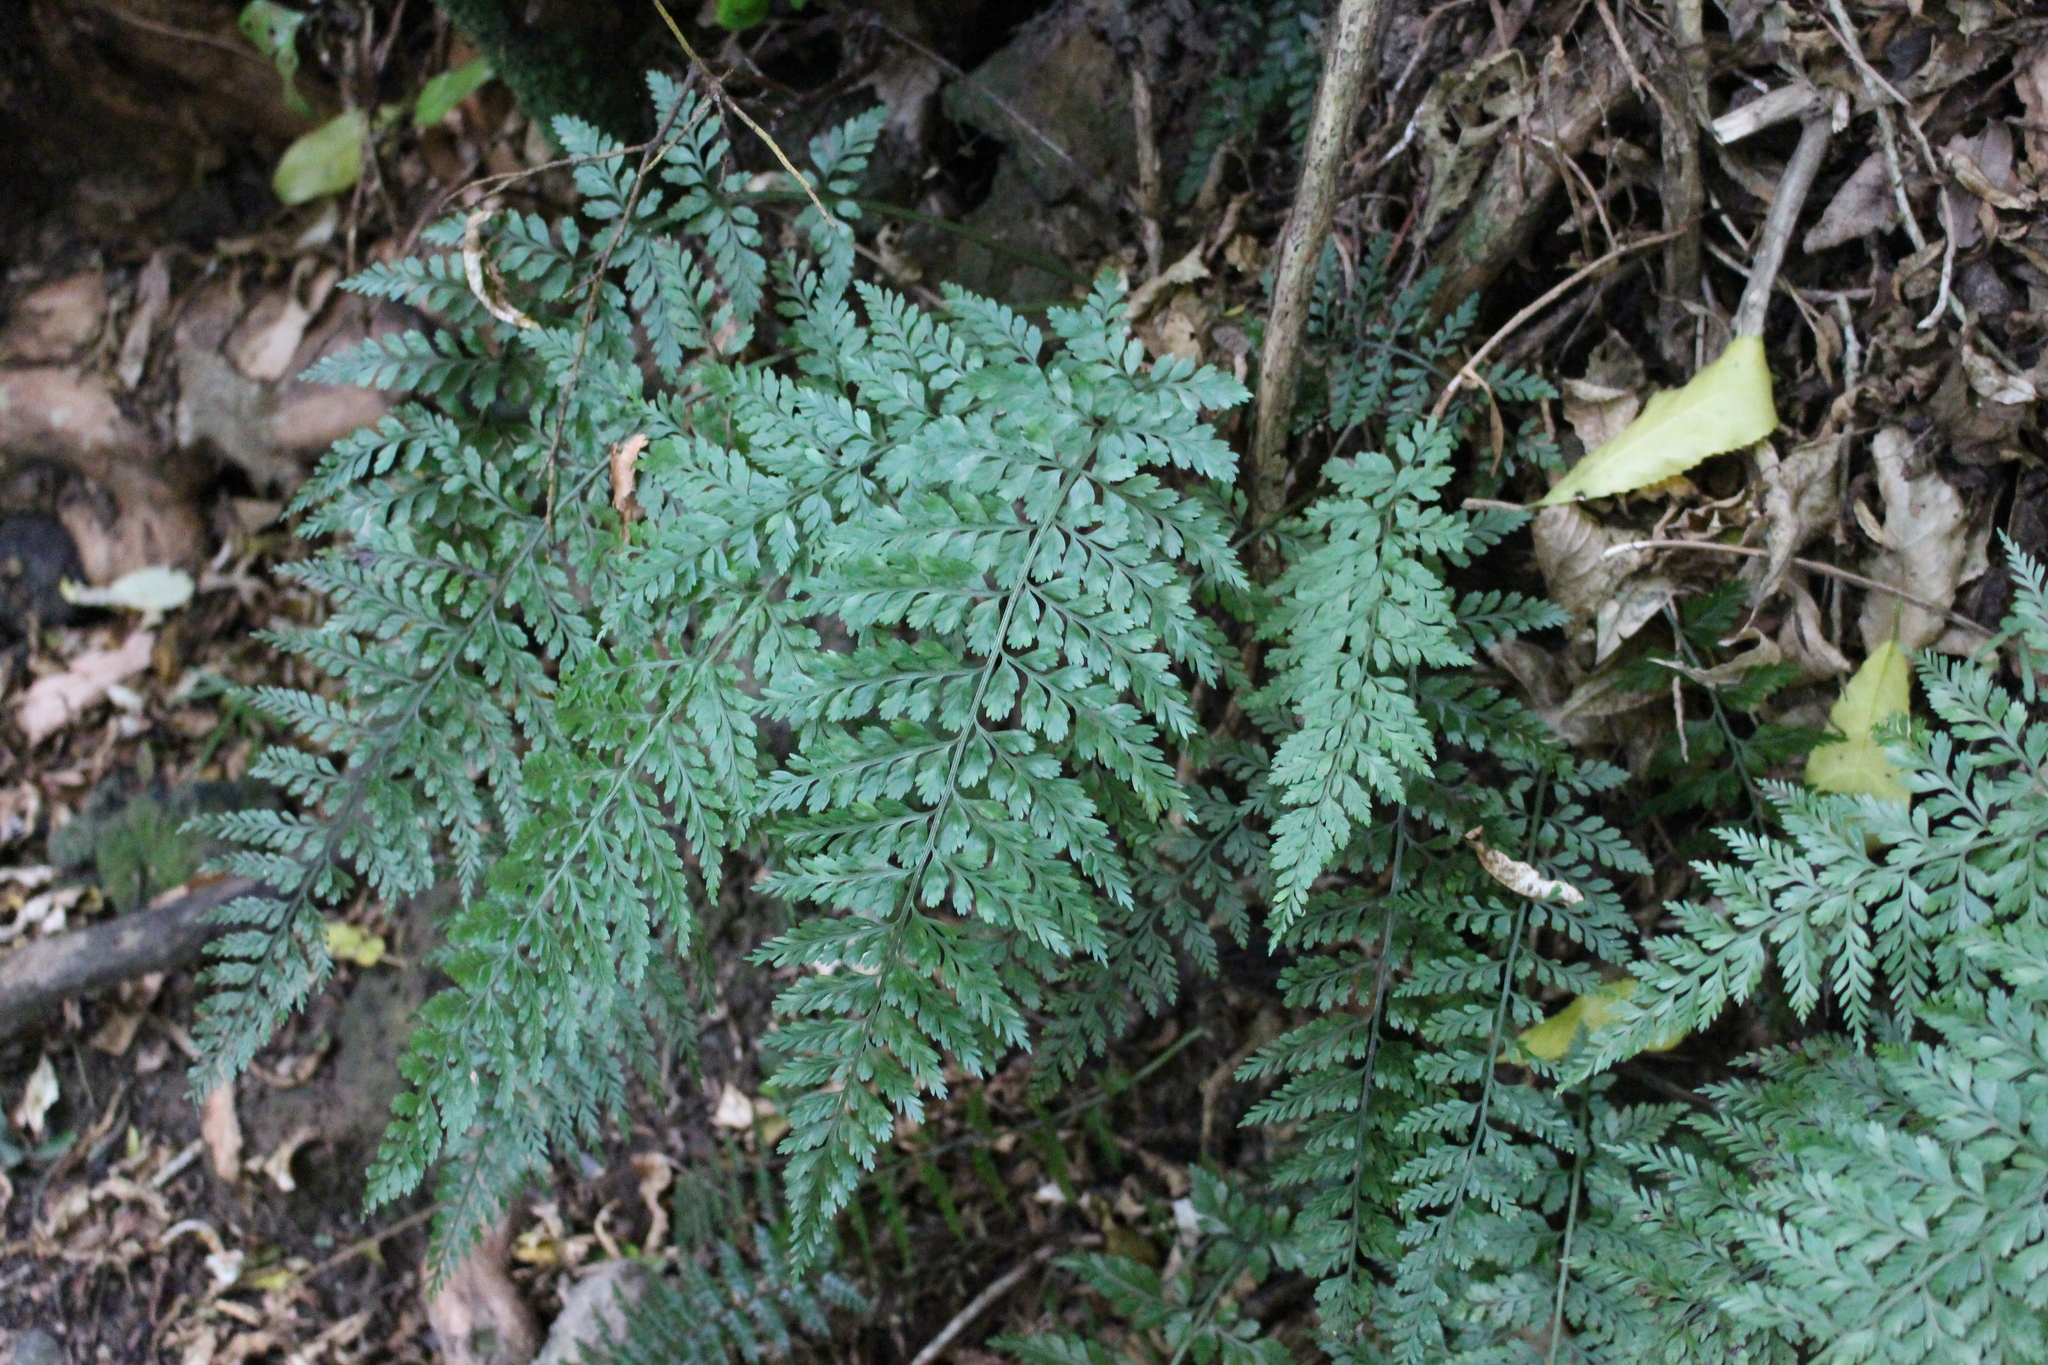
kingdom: Plantae
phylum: Tracheophyta
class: Polypodiopsida
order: Polypodiales
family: Aspleniaceae
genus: Asplenium
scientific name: Asplenium
